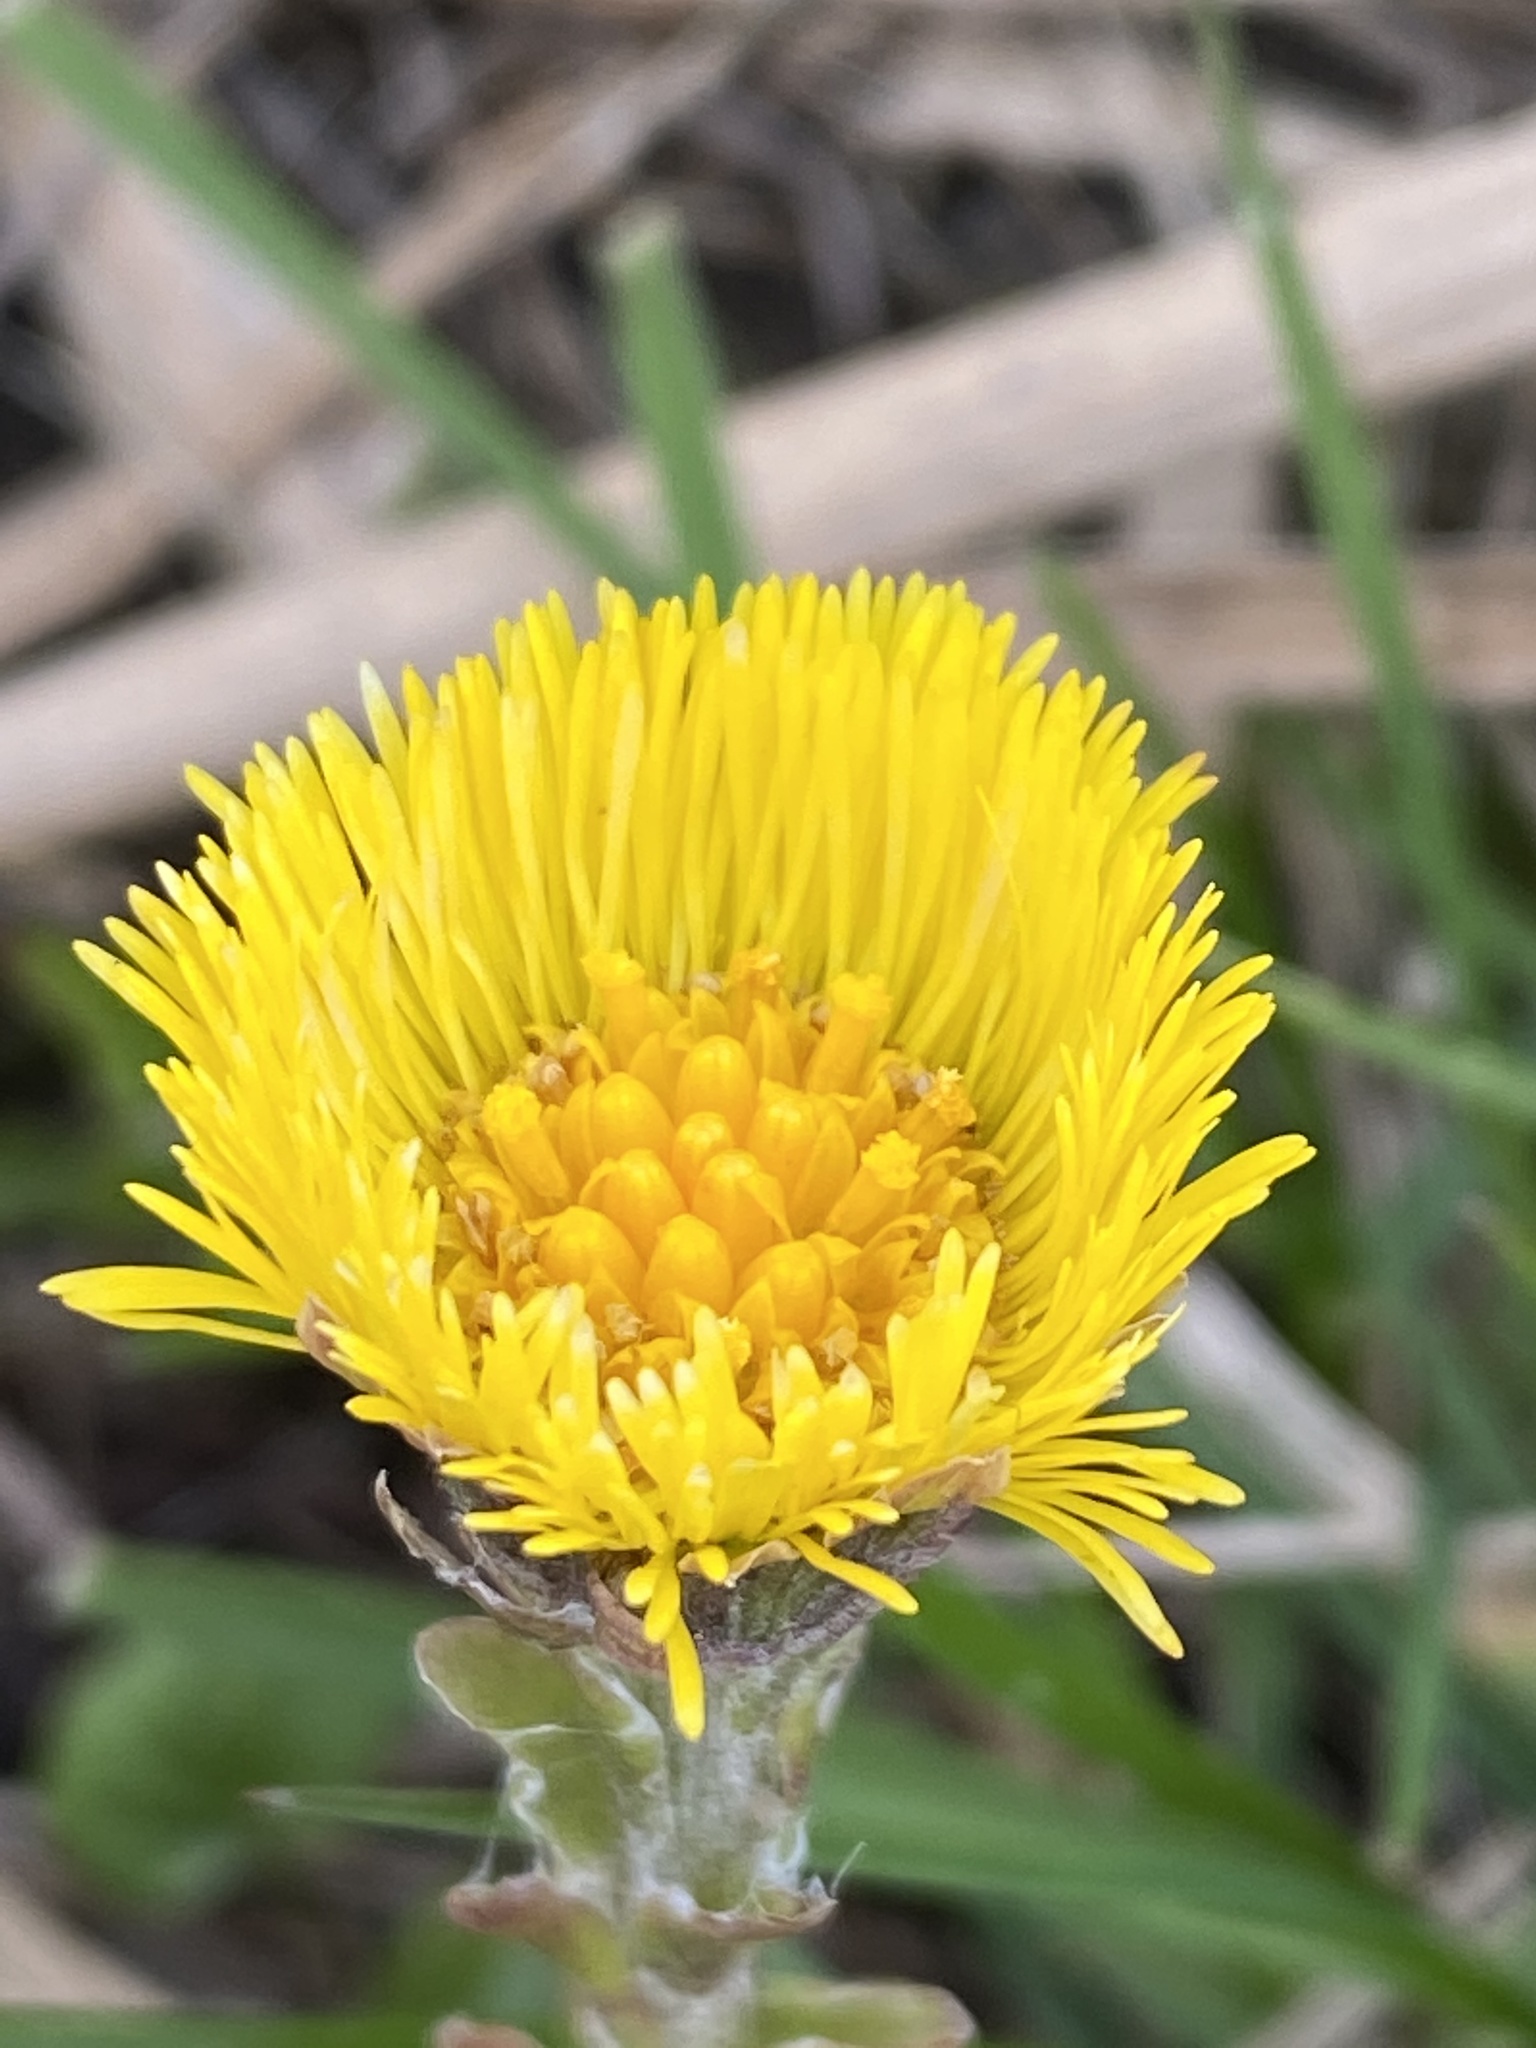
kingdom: Plantae
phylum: Tracheophyta
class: Magnoliopsida
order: Asterales
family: Asteraceae
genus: Tussilago
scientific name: Tussilago farfara
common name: Coltsfoot
